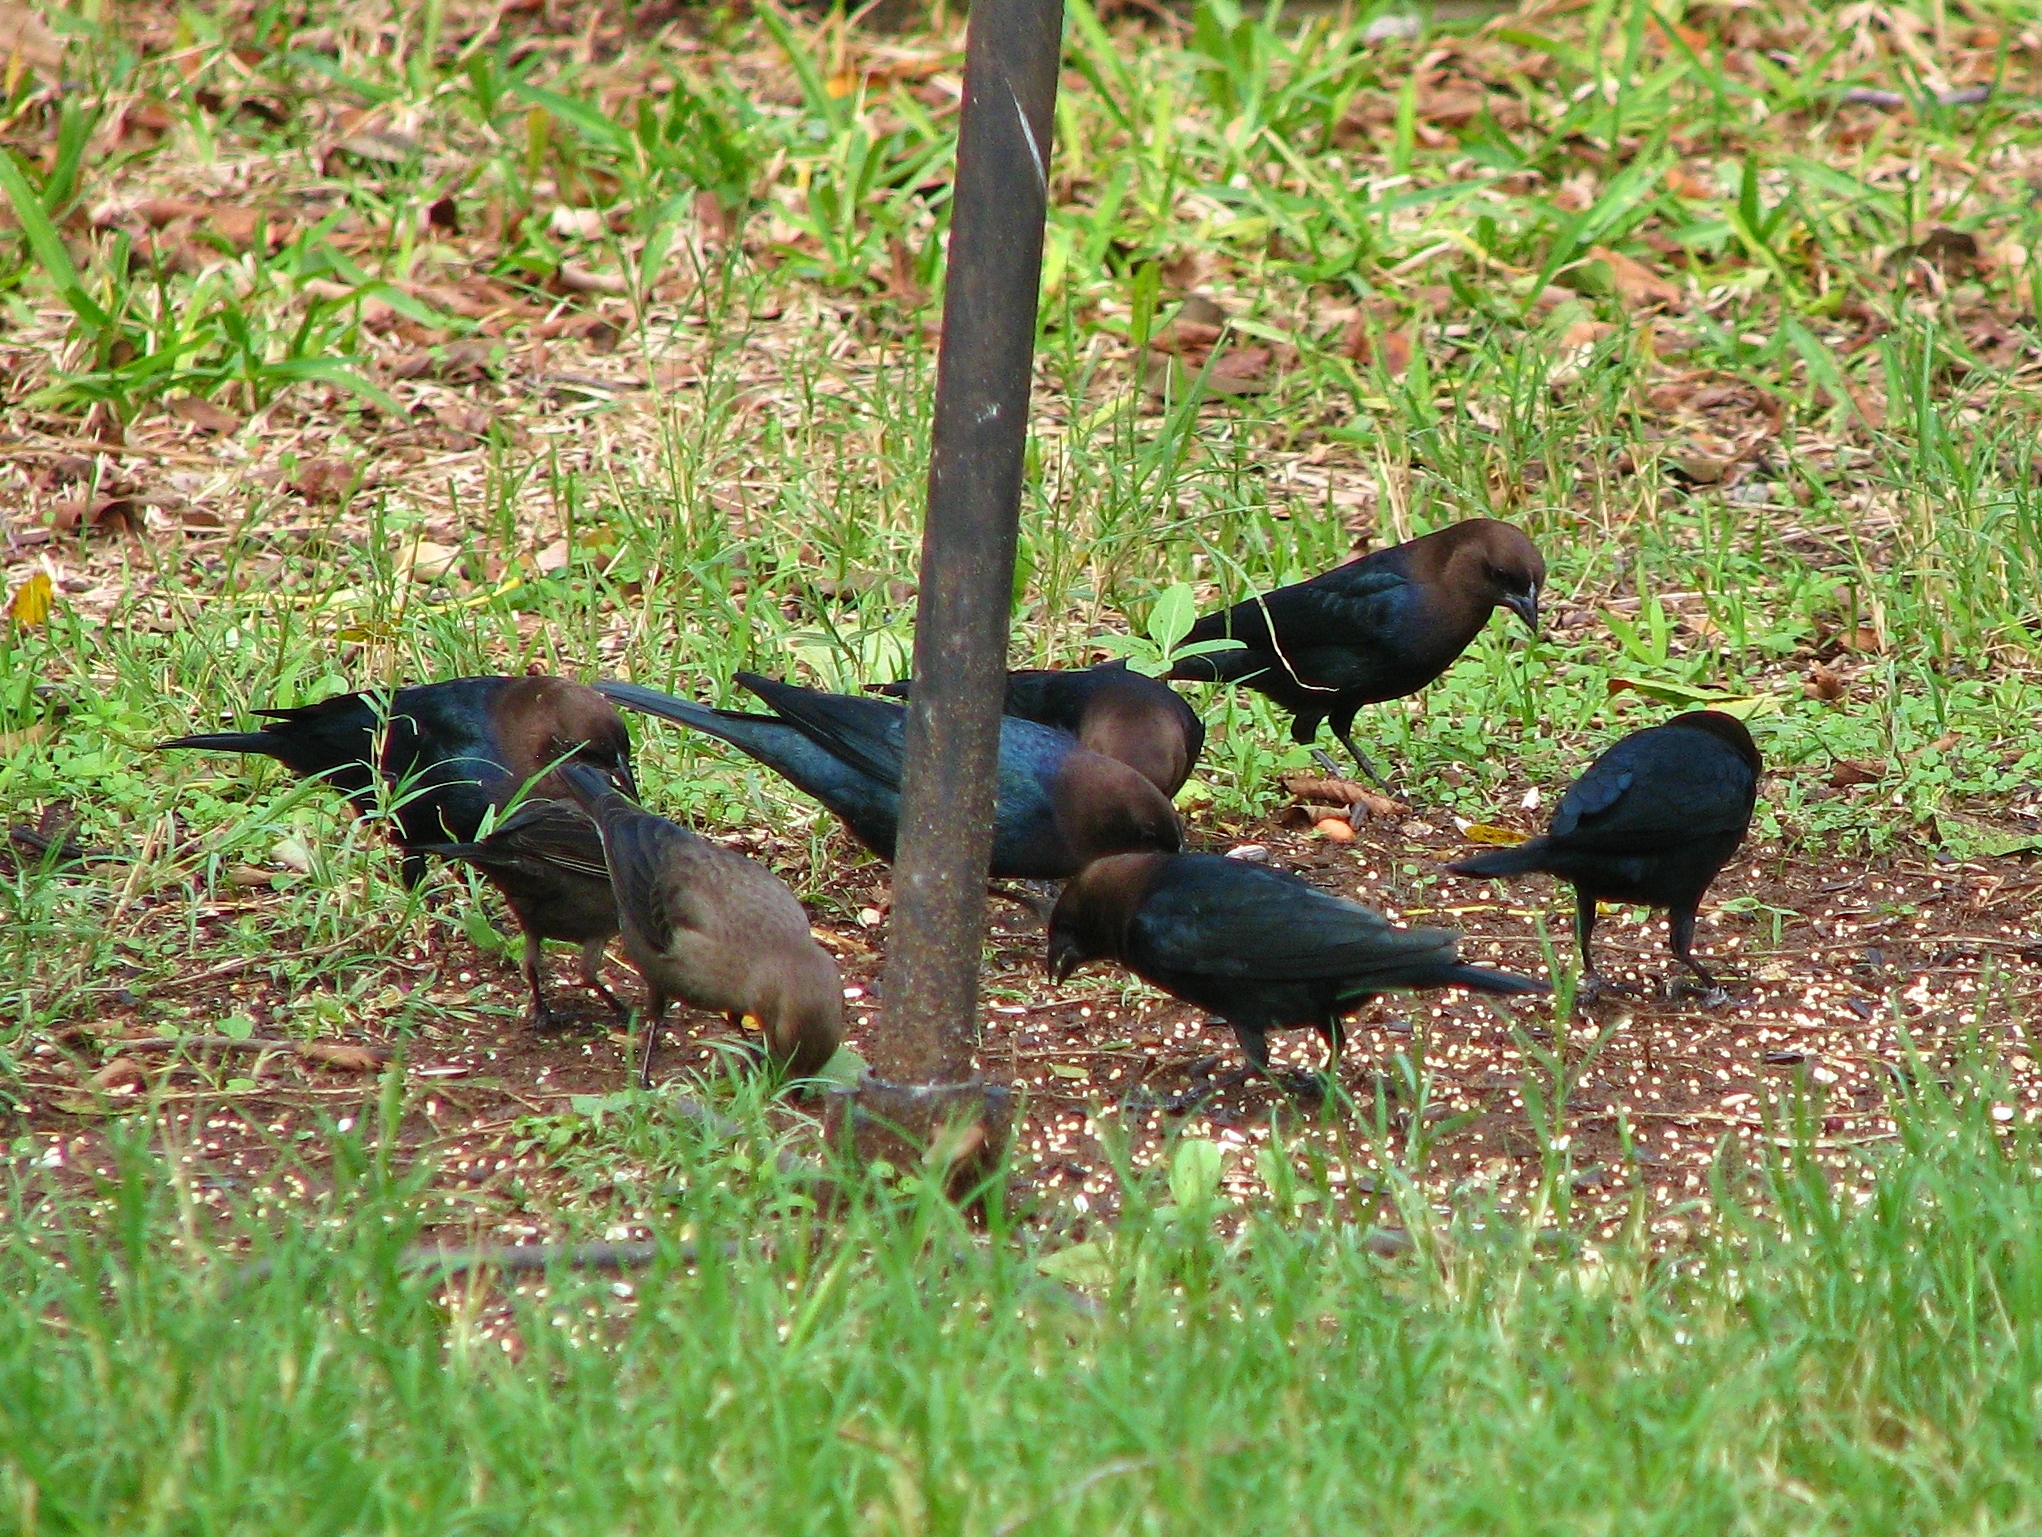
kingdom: Animalia
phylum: Chordata
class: Aves
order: Passeriformes
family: Icteridae
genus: Molothrus
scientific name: Molothrus ater
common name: Brown-headed cowbird
